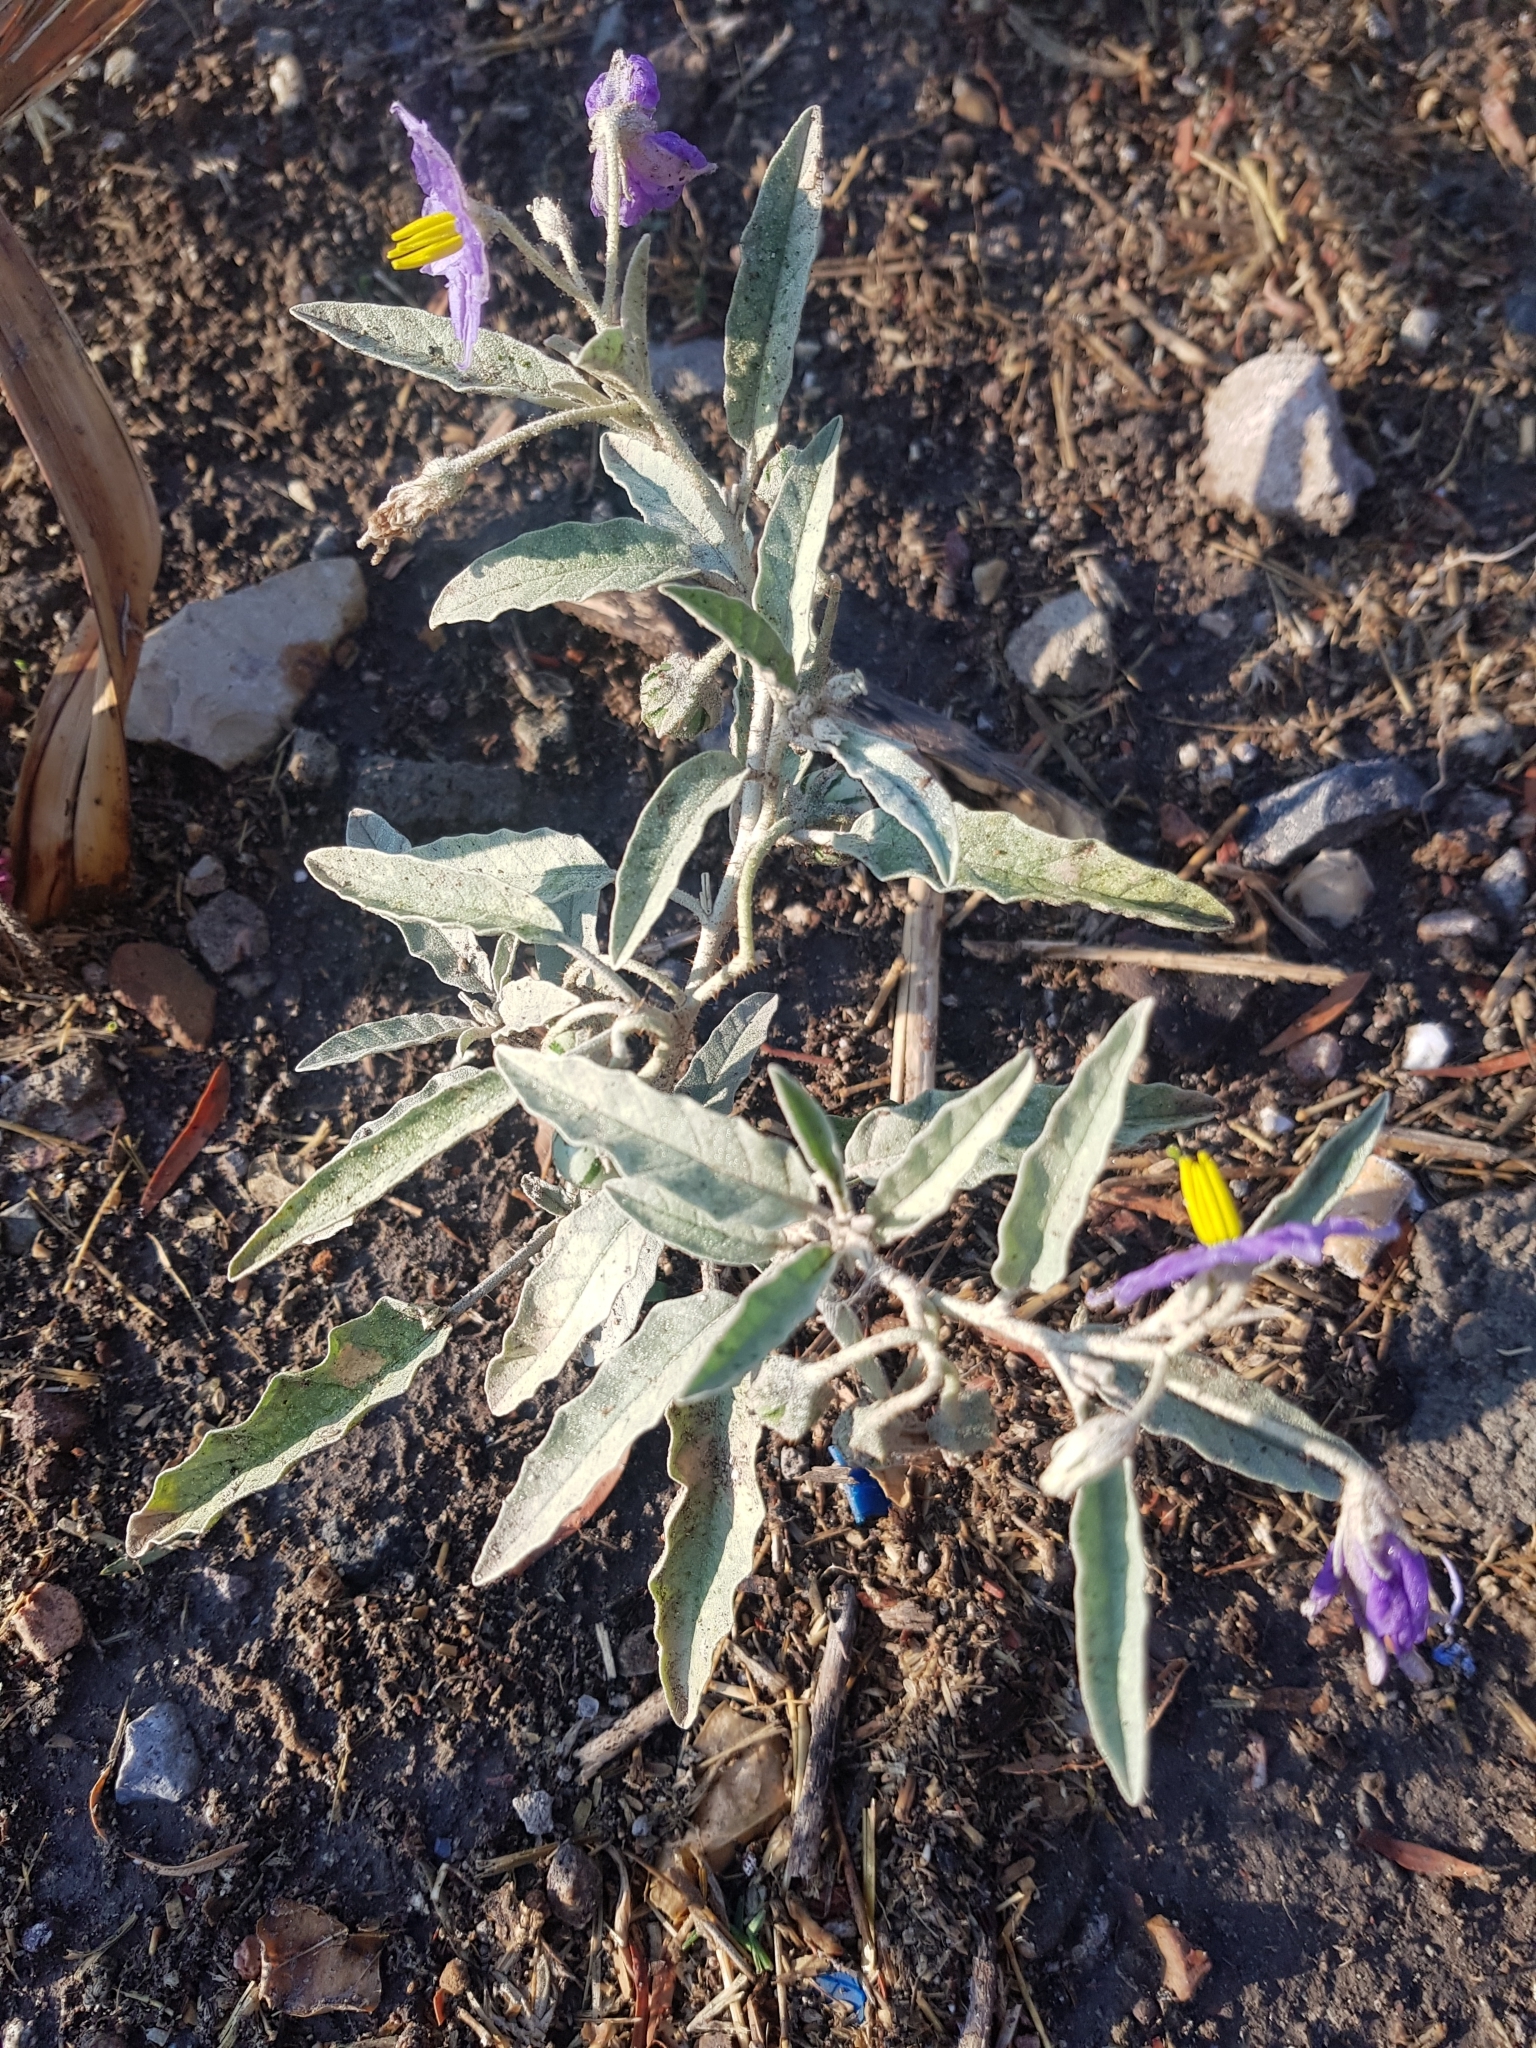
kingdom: Plantae
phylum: Tracheophyta
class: Magnoliopsida
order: Solanales
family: Solanaceae
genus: Solanum
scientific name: Solanum elaeagnifolium
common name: Silverleaf nightshade
